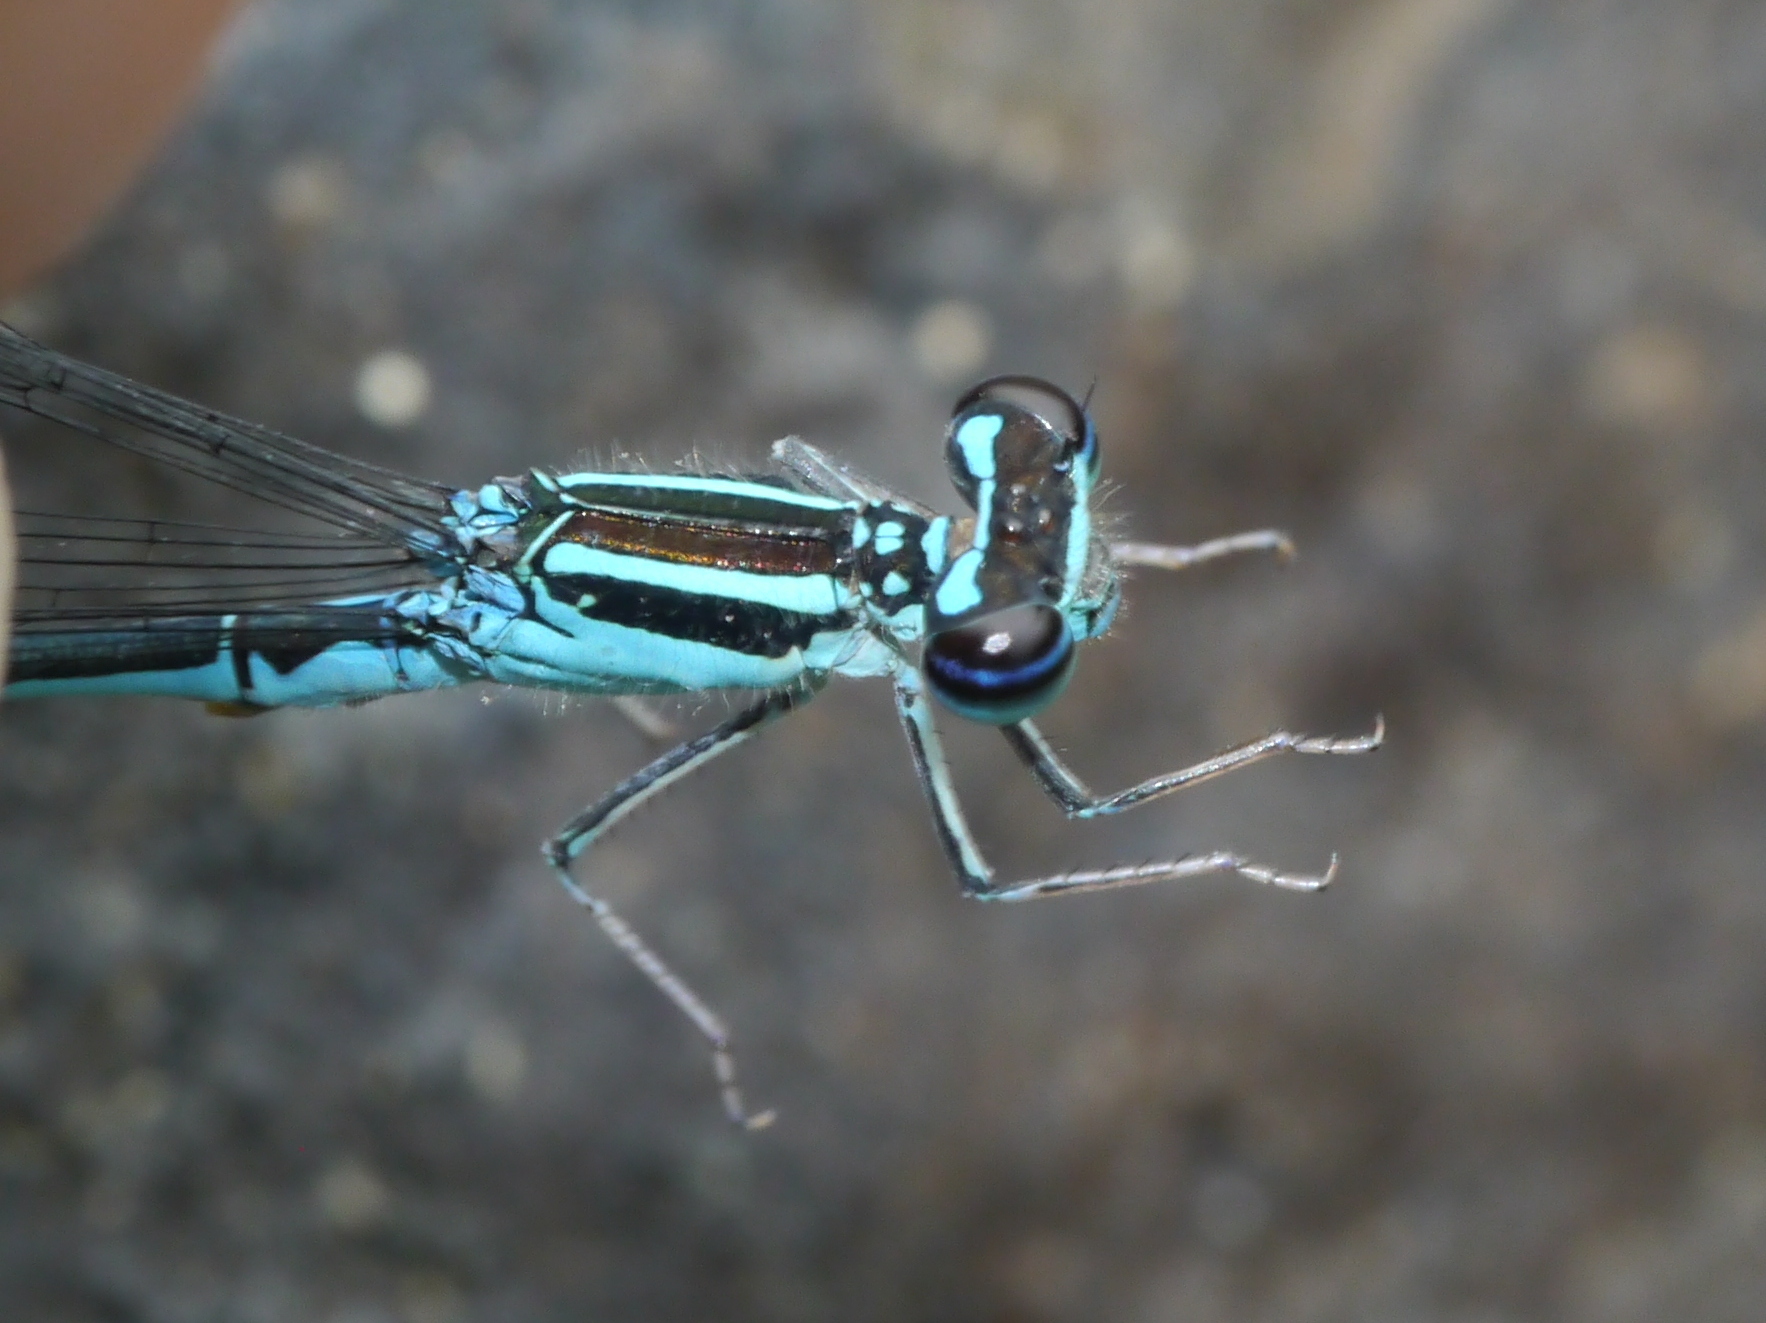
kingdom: Animalia
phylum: Arthropoda
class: Insecta
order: Odonata
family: Coenagrionidae
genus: Enallagma
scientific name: Enallagma exsulans
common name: Stream bluet
